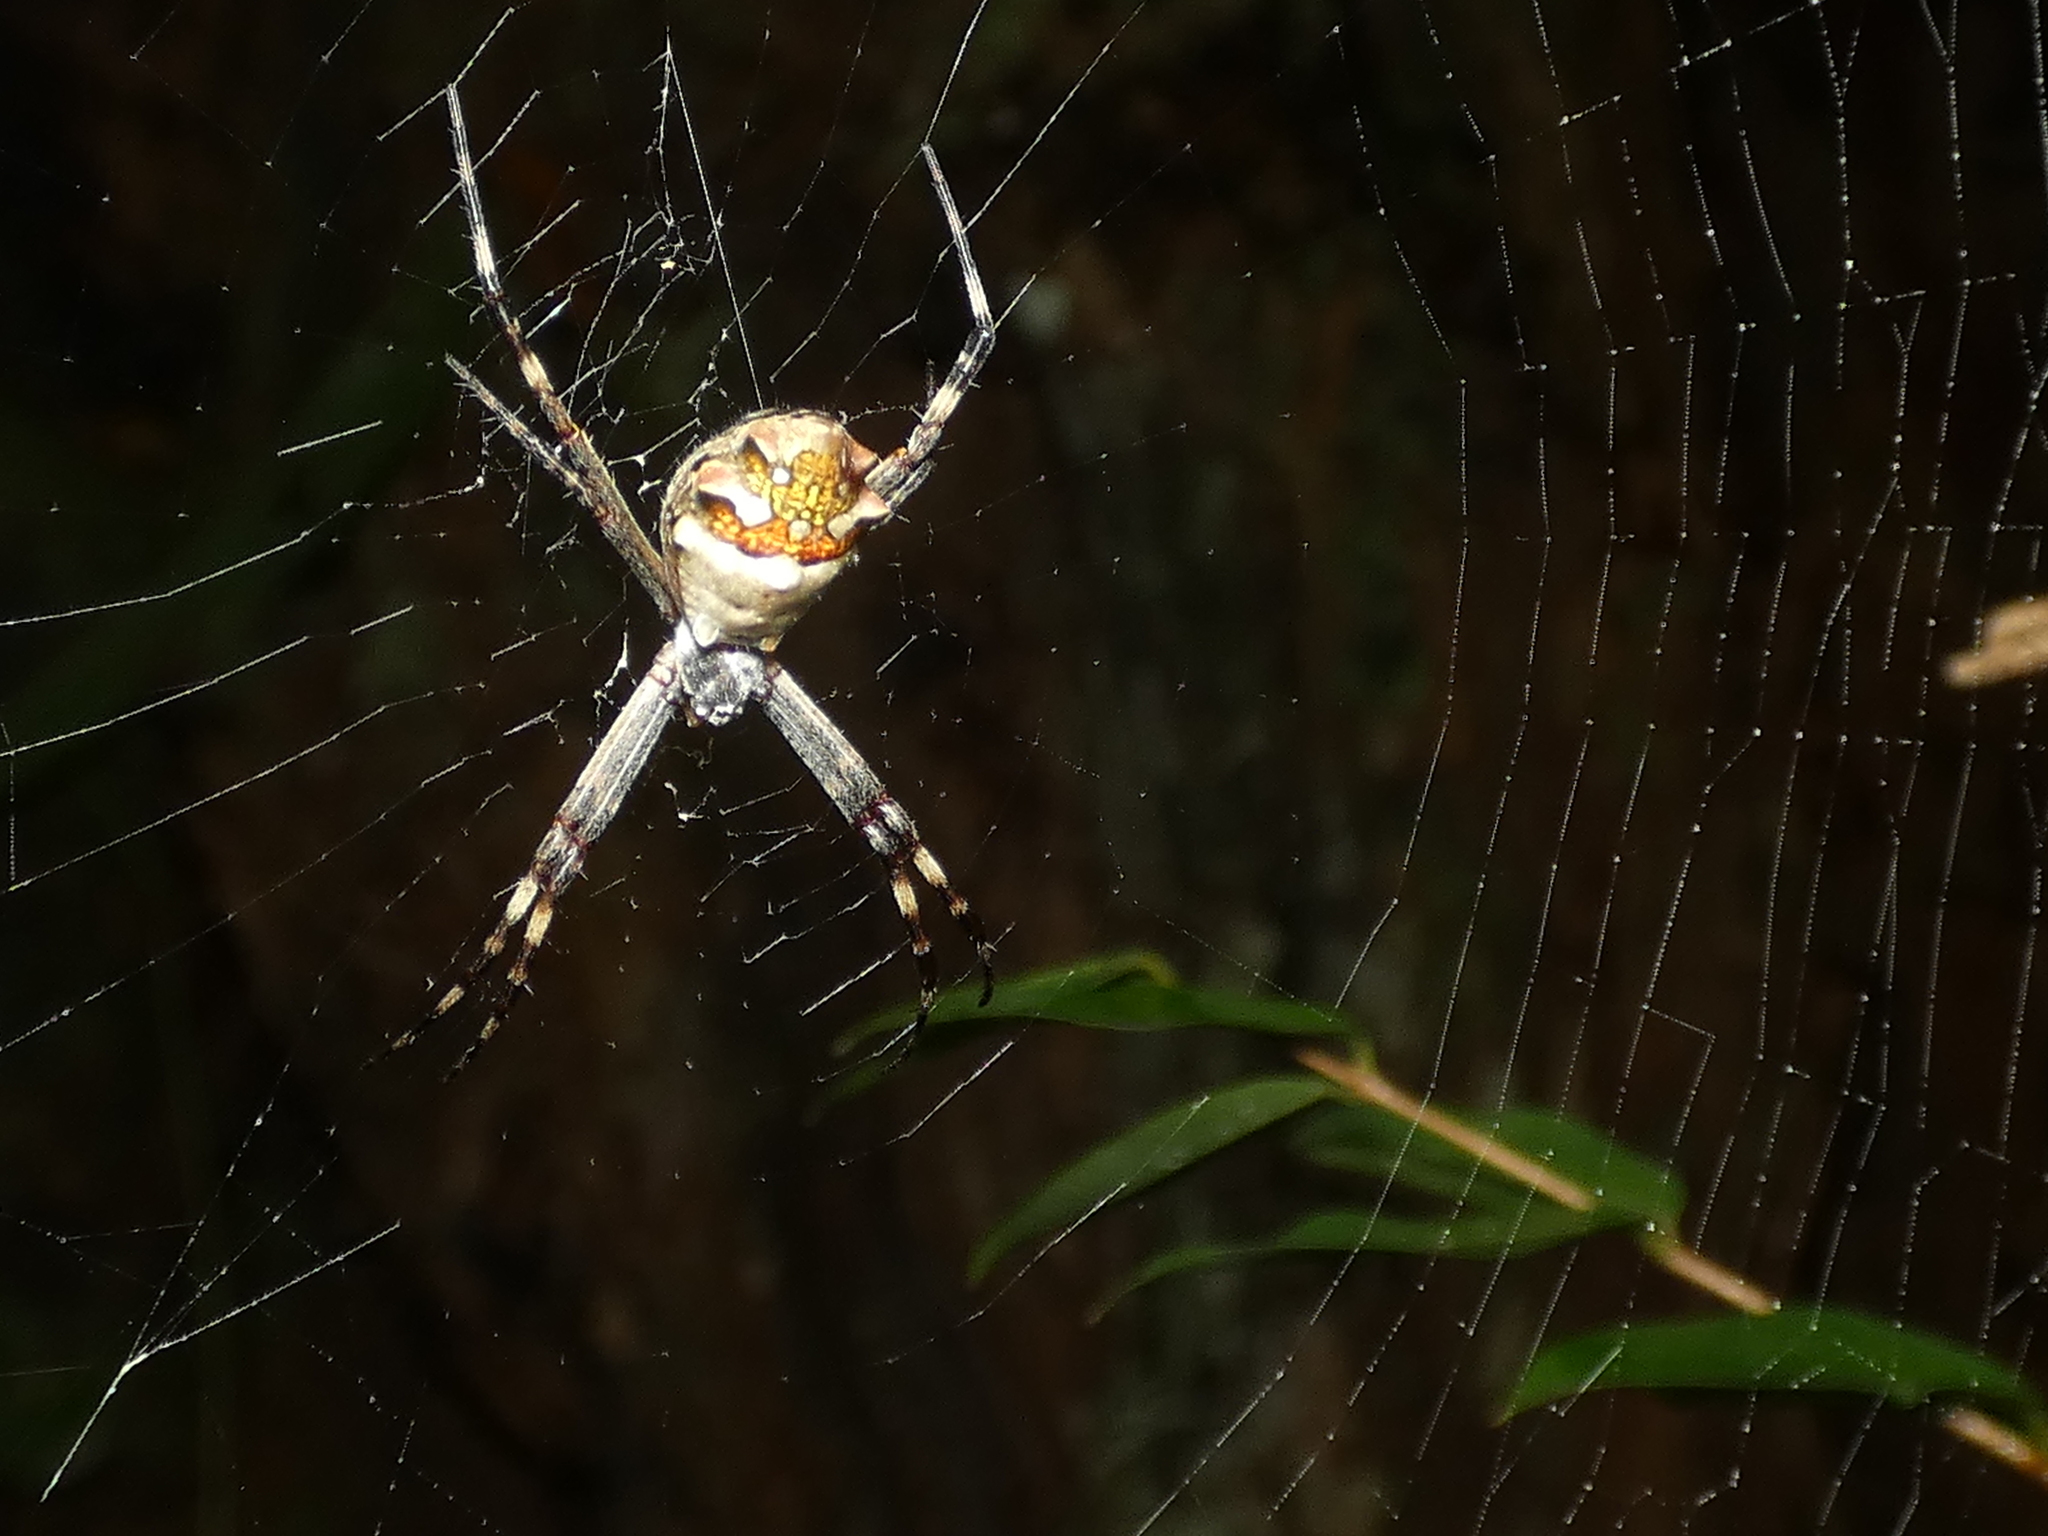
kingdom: Animalia
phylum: Arthropoda
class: Arachnida
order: Araneae
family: Araneidae
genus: Argiope
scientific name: Argiope argentata
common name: Orb weavers
